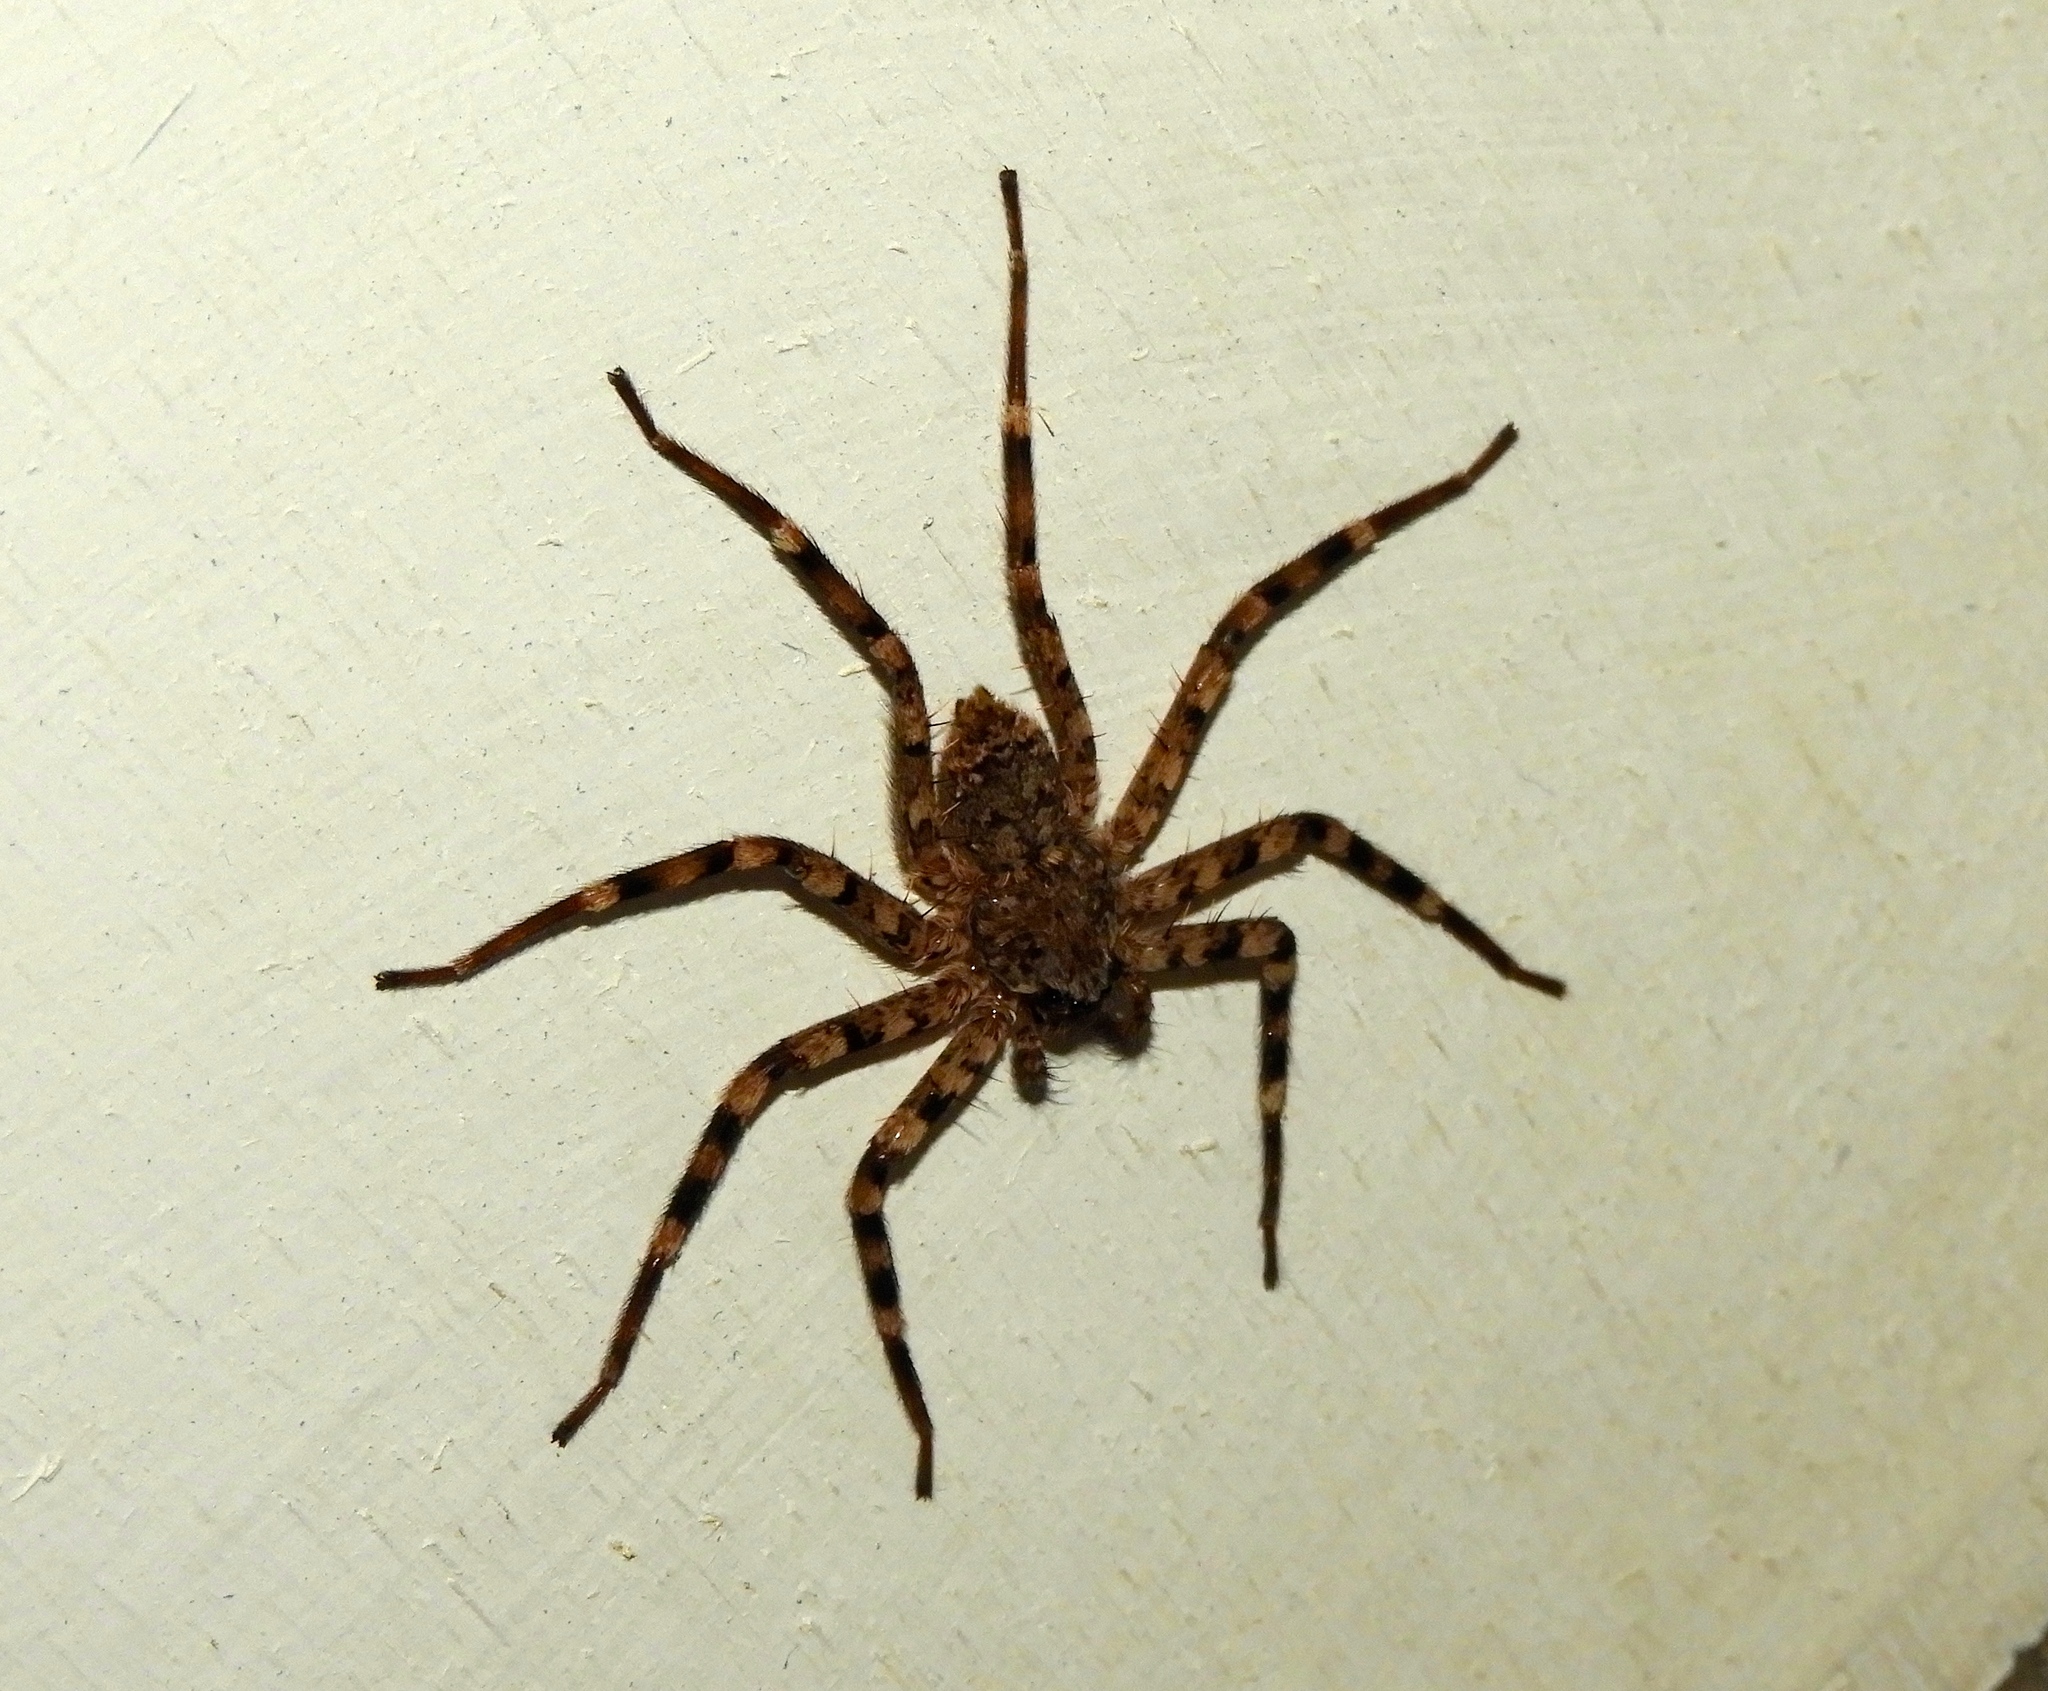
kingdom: Animalia
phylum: Arthropoda
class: Arachnida
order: Araneae
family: Selenopidae
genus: Selenops
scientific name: Selenops
